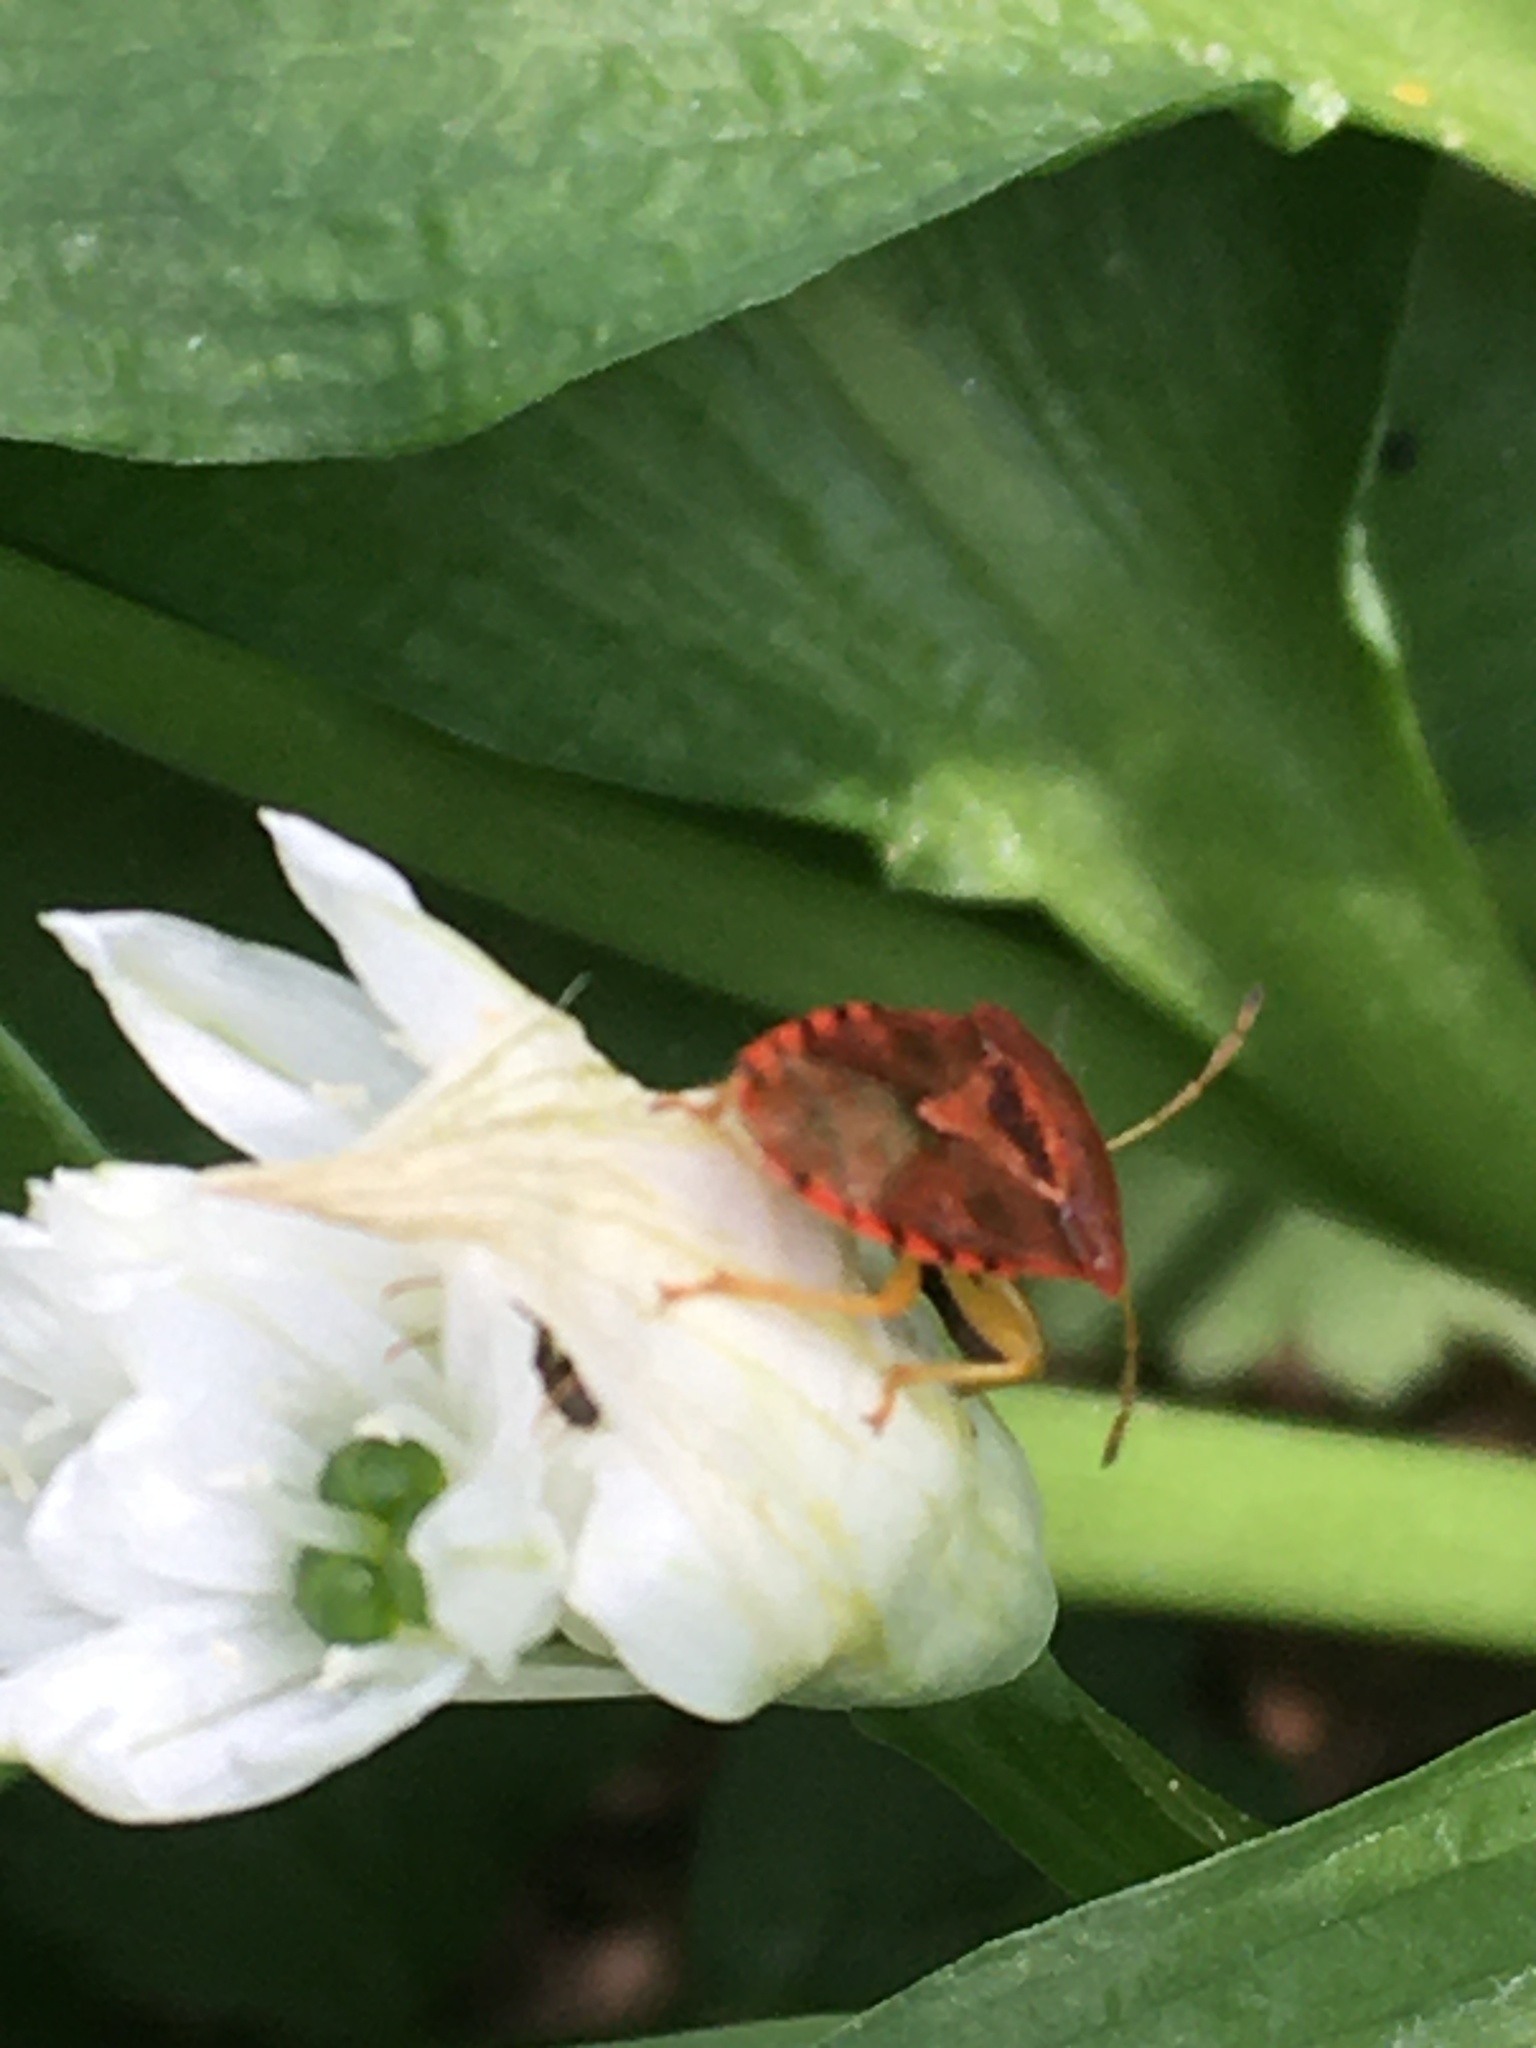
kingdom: Animalia
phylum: Arthropoda
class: Insecta
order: Hemiptera
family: Acanthosomatidae
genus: Elasmucha
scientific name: Elasmucha grisea
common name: Parent bug
